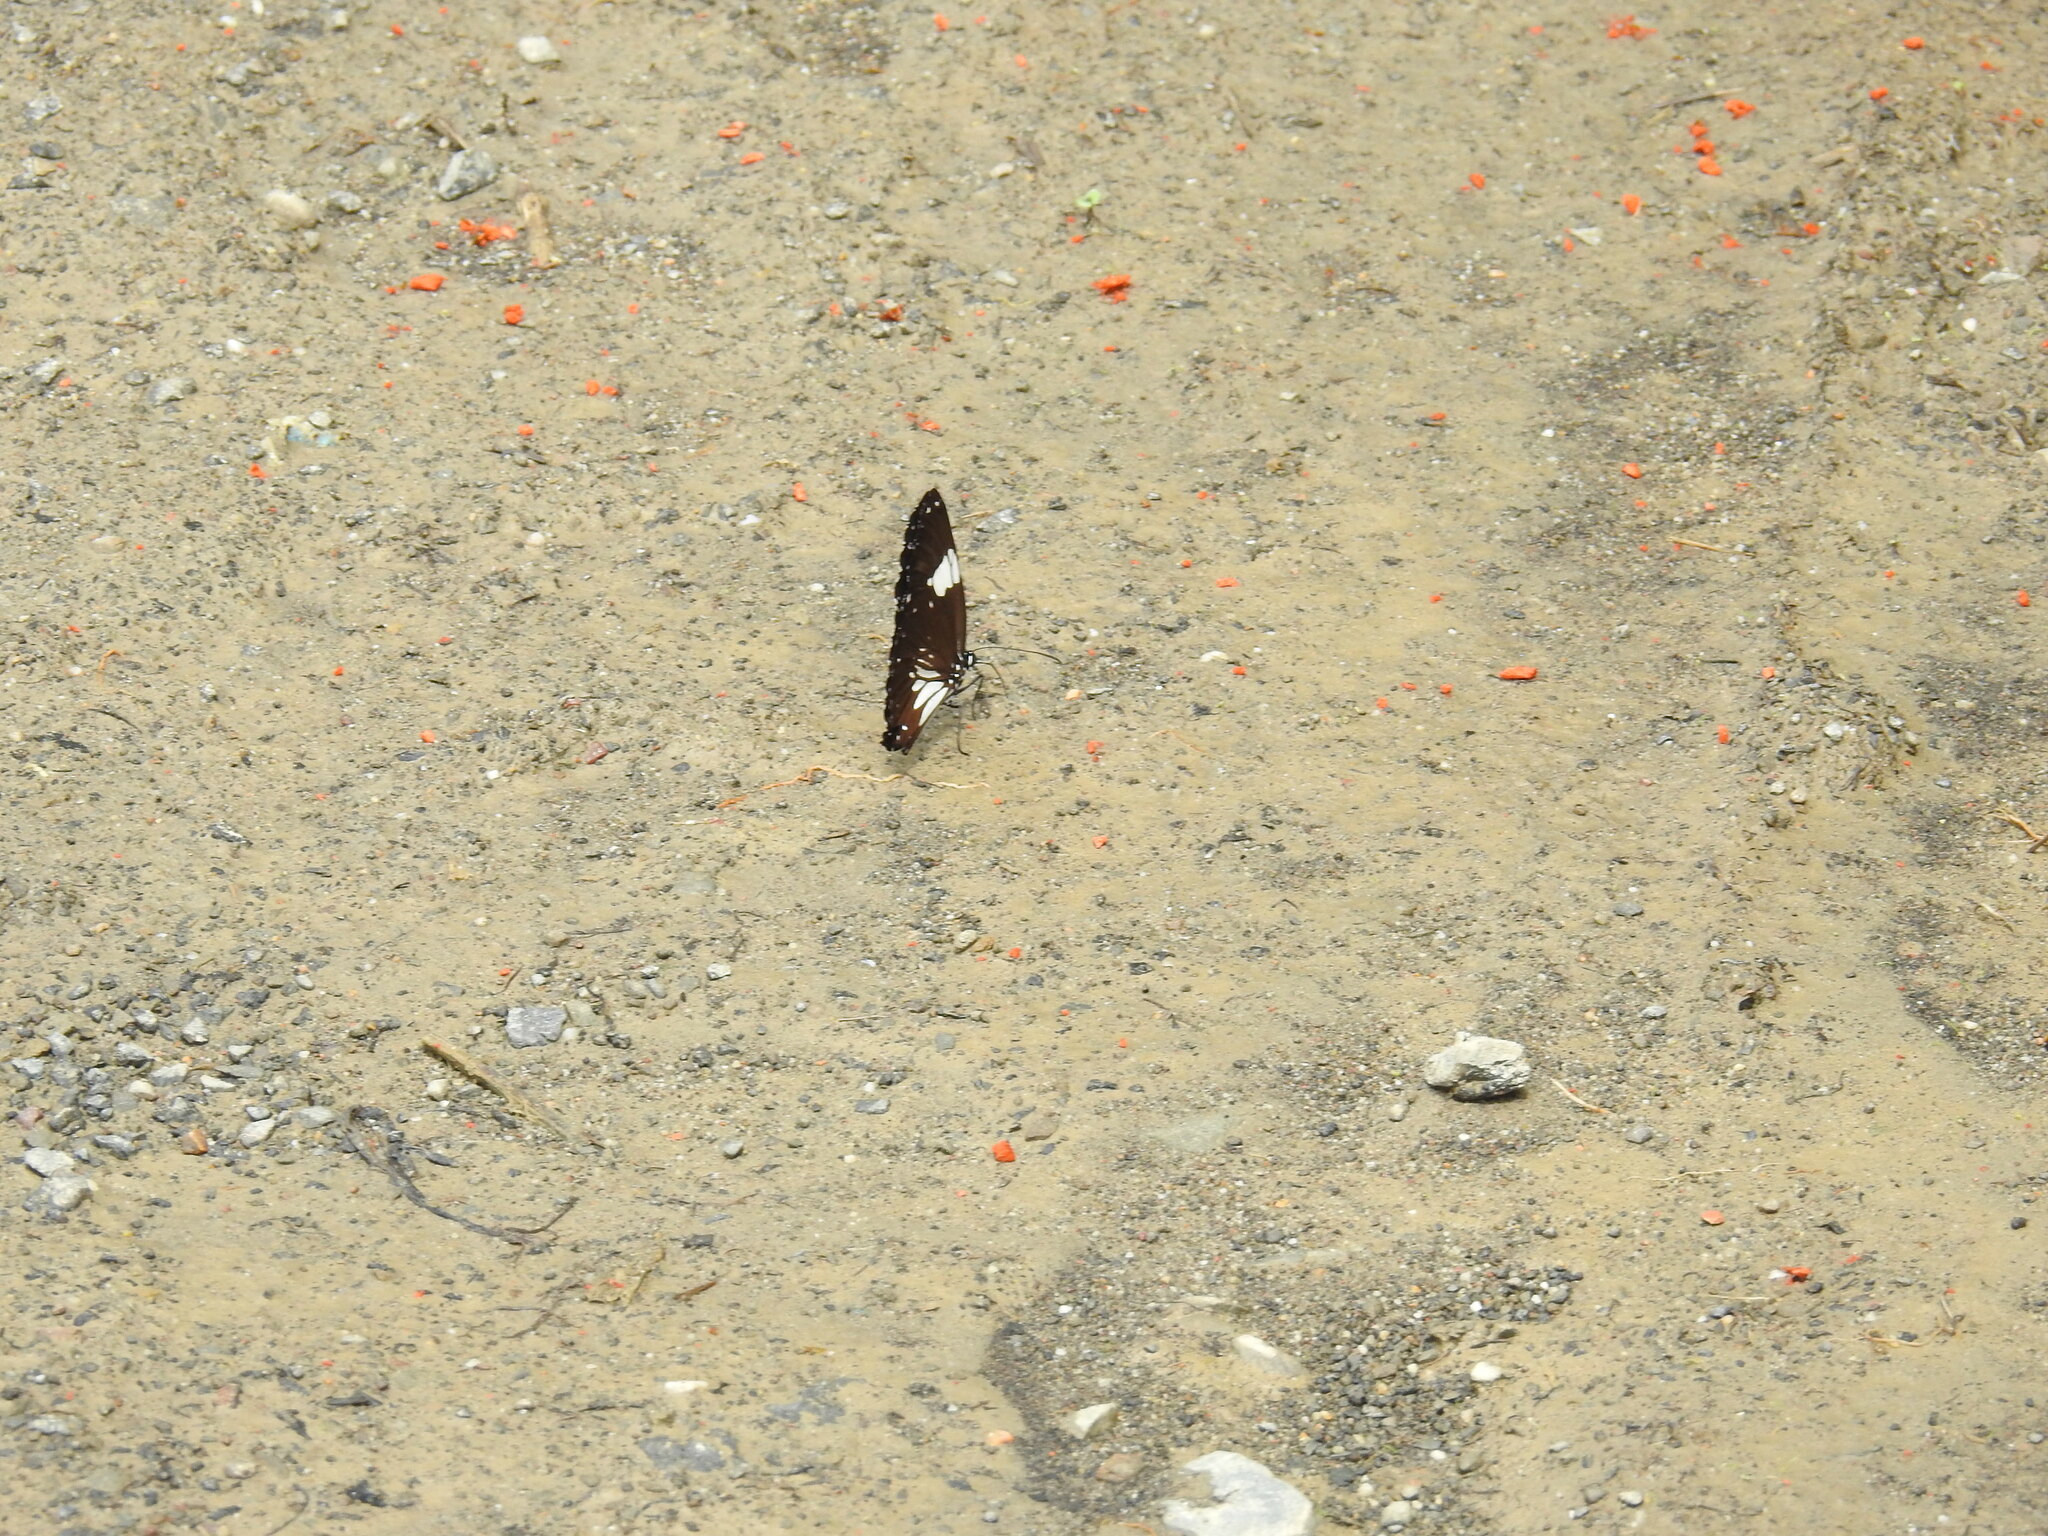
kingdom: Animalia
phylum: Arthropoda
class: Insecta
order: Lepidoptera
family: Nymphalidae
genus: Euploea
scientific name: Euploea radamanthus
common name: Magpie crow butterfly
